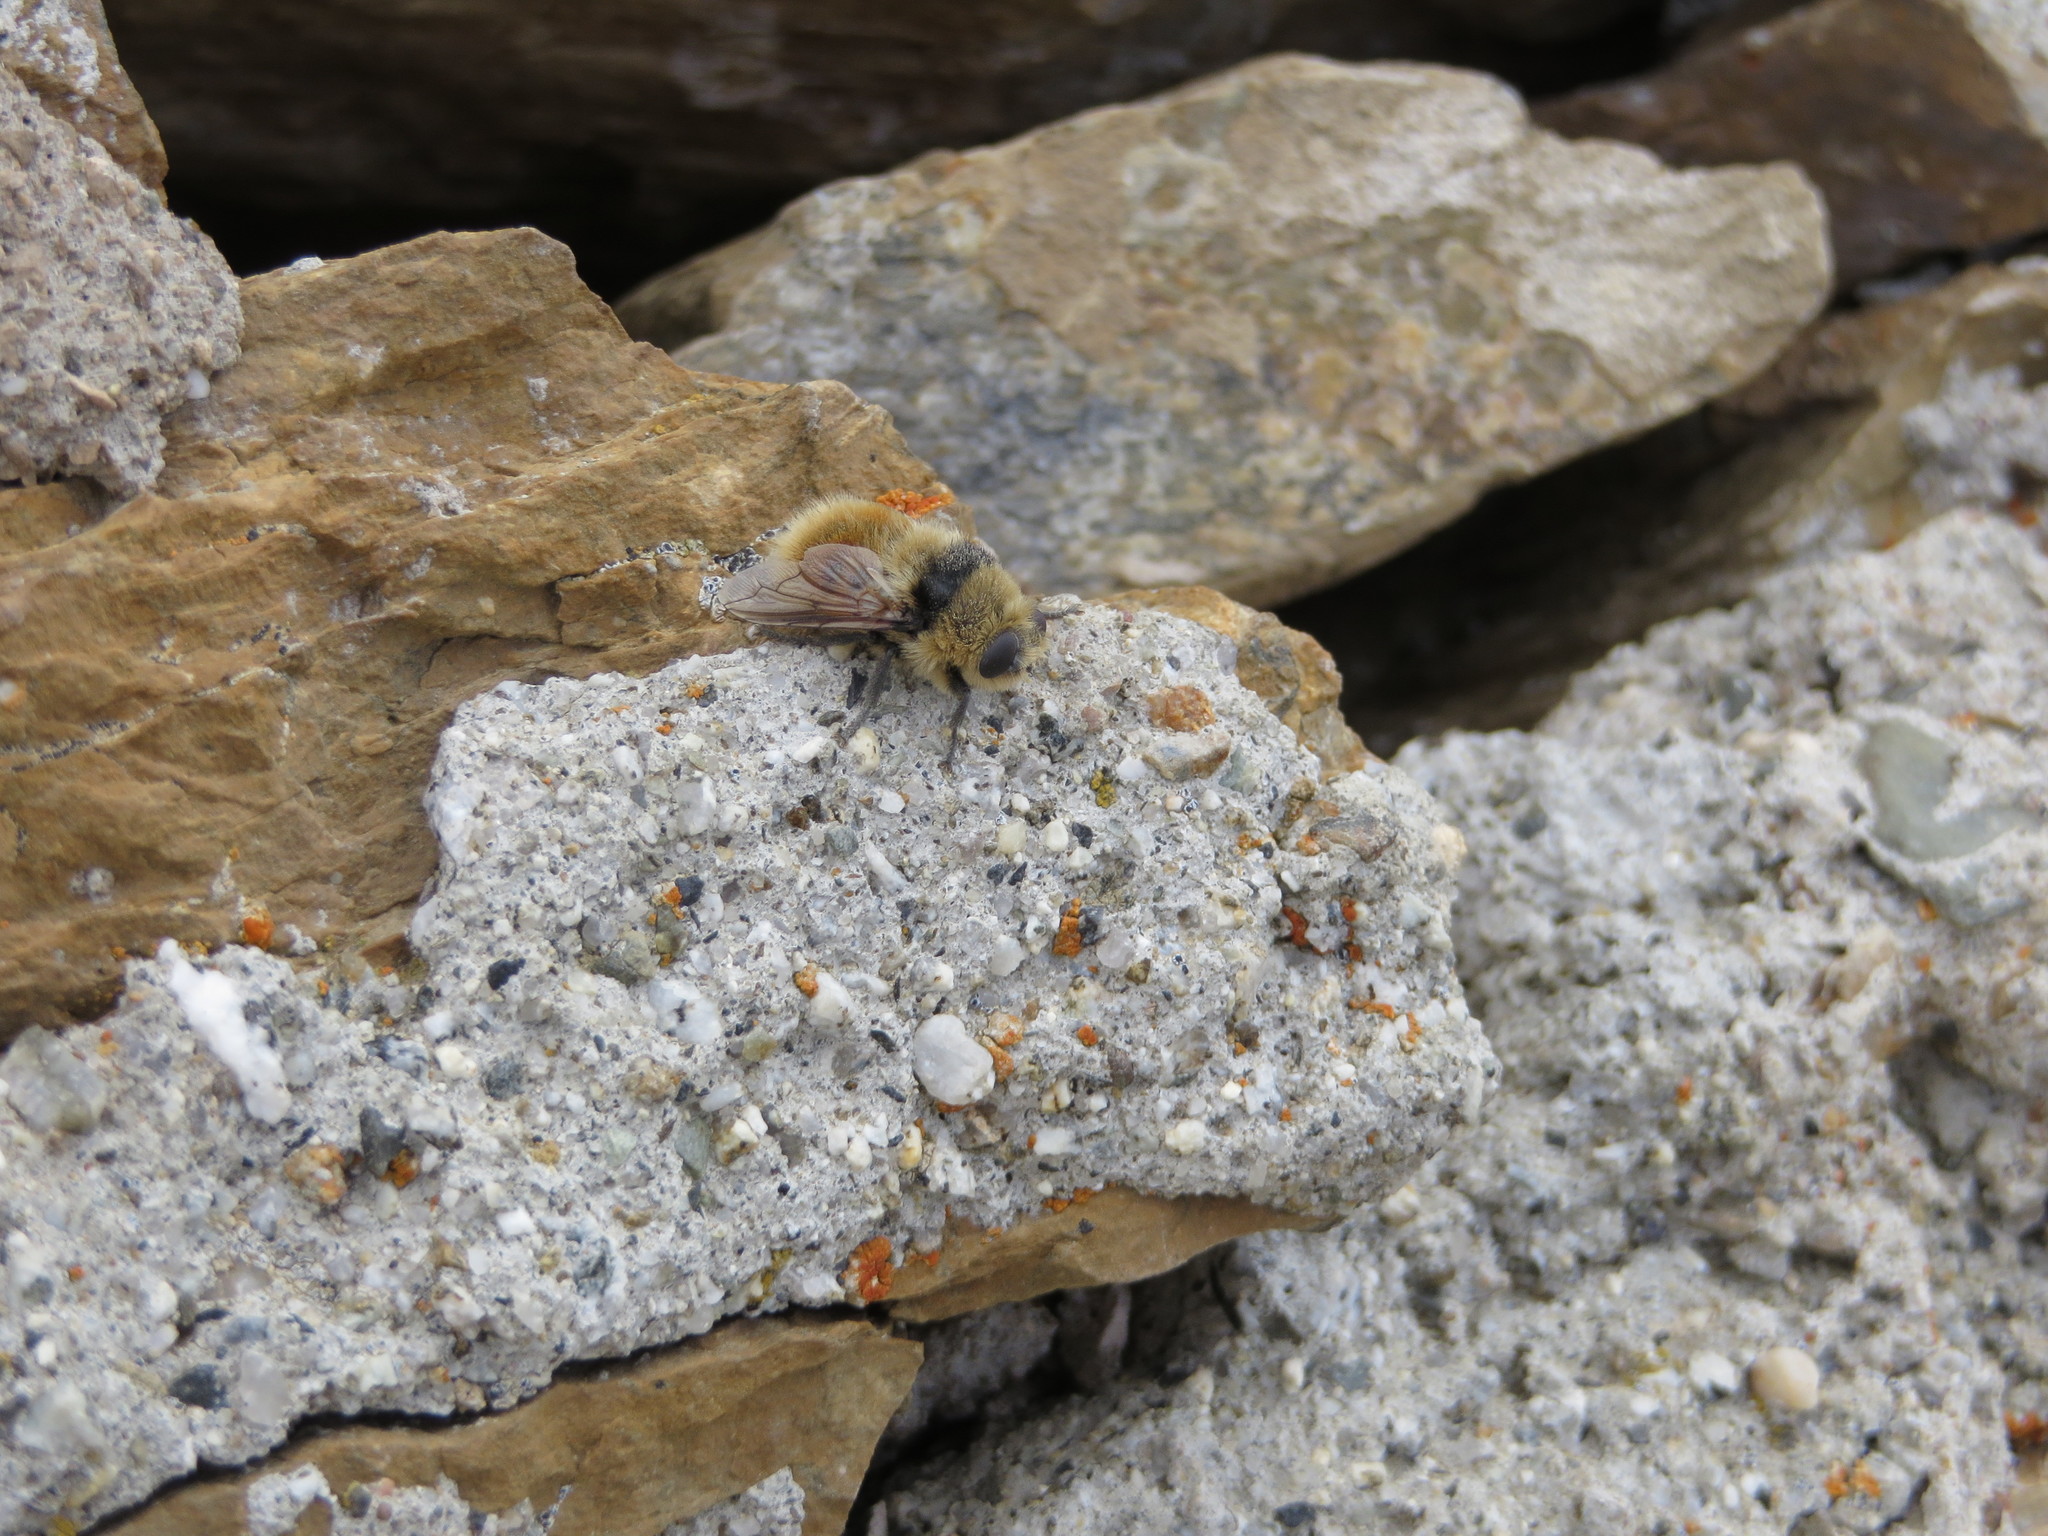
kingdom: Animalia
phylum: Arthropoda
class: Insecta
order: Diptera
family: Oestridae
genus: Cephenemyia
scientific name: Cephenemyia stimulator
